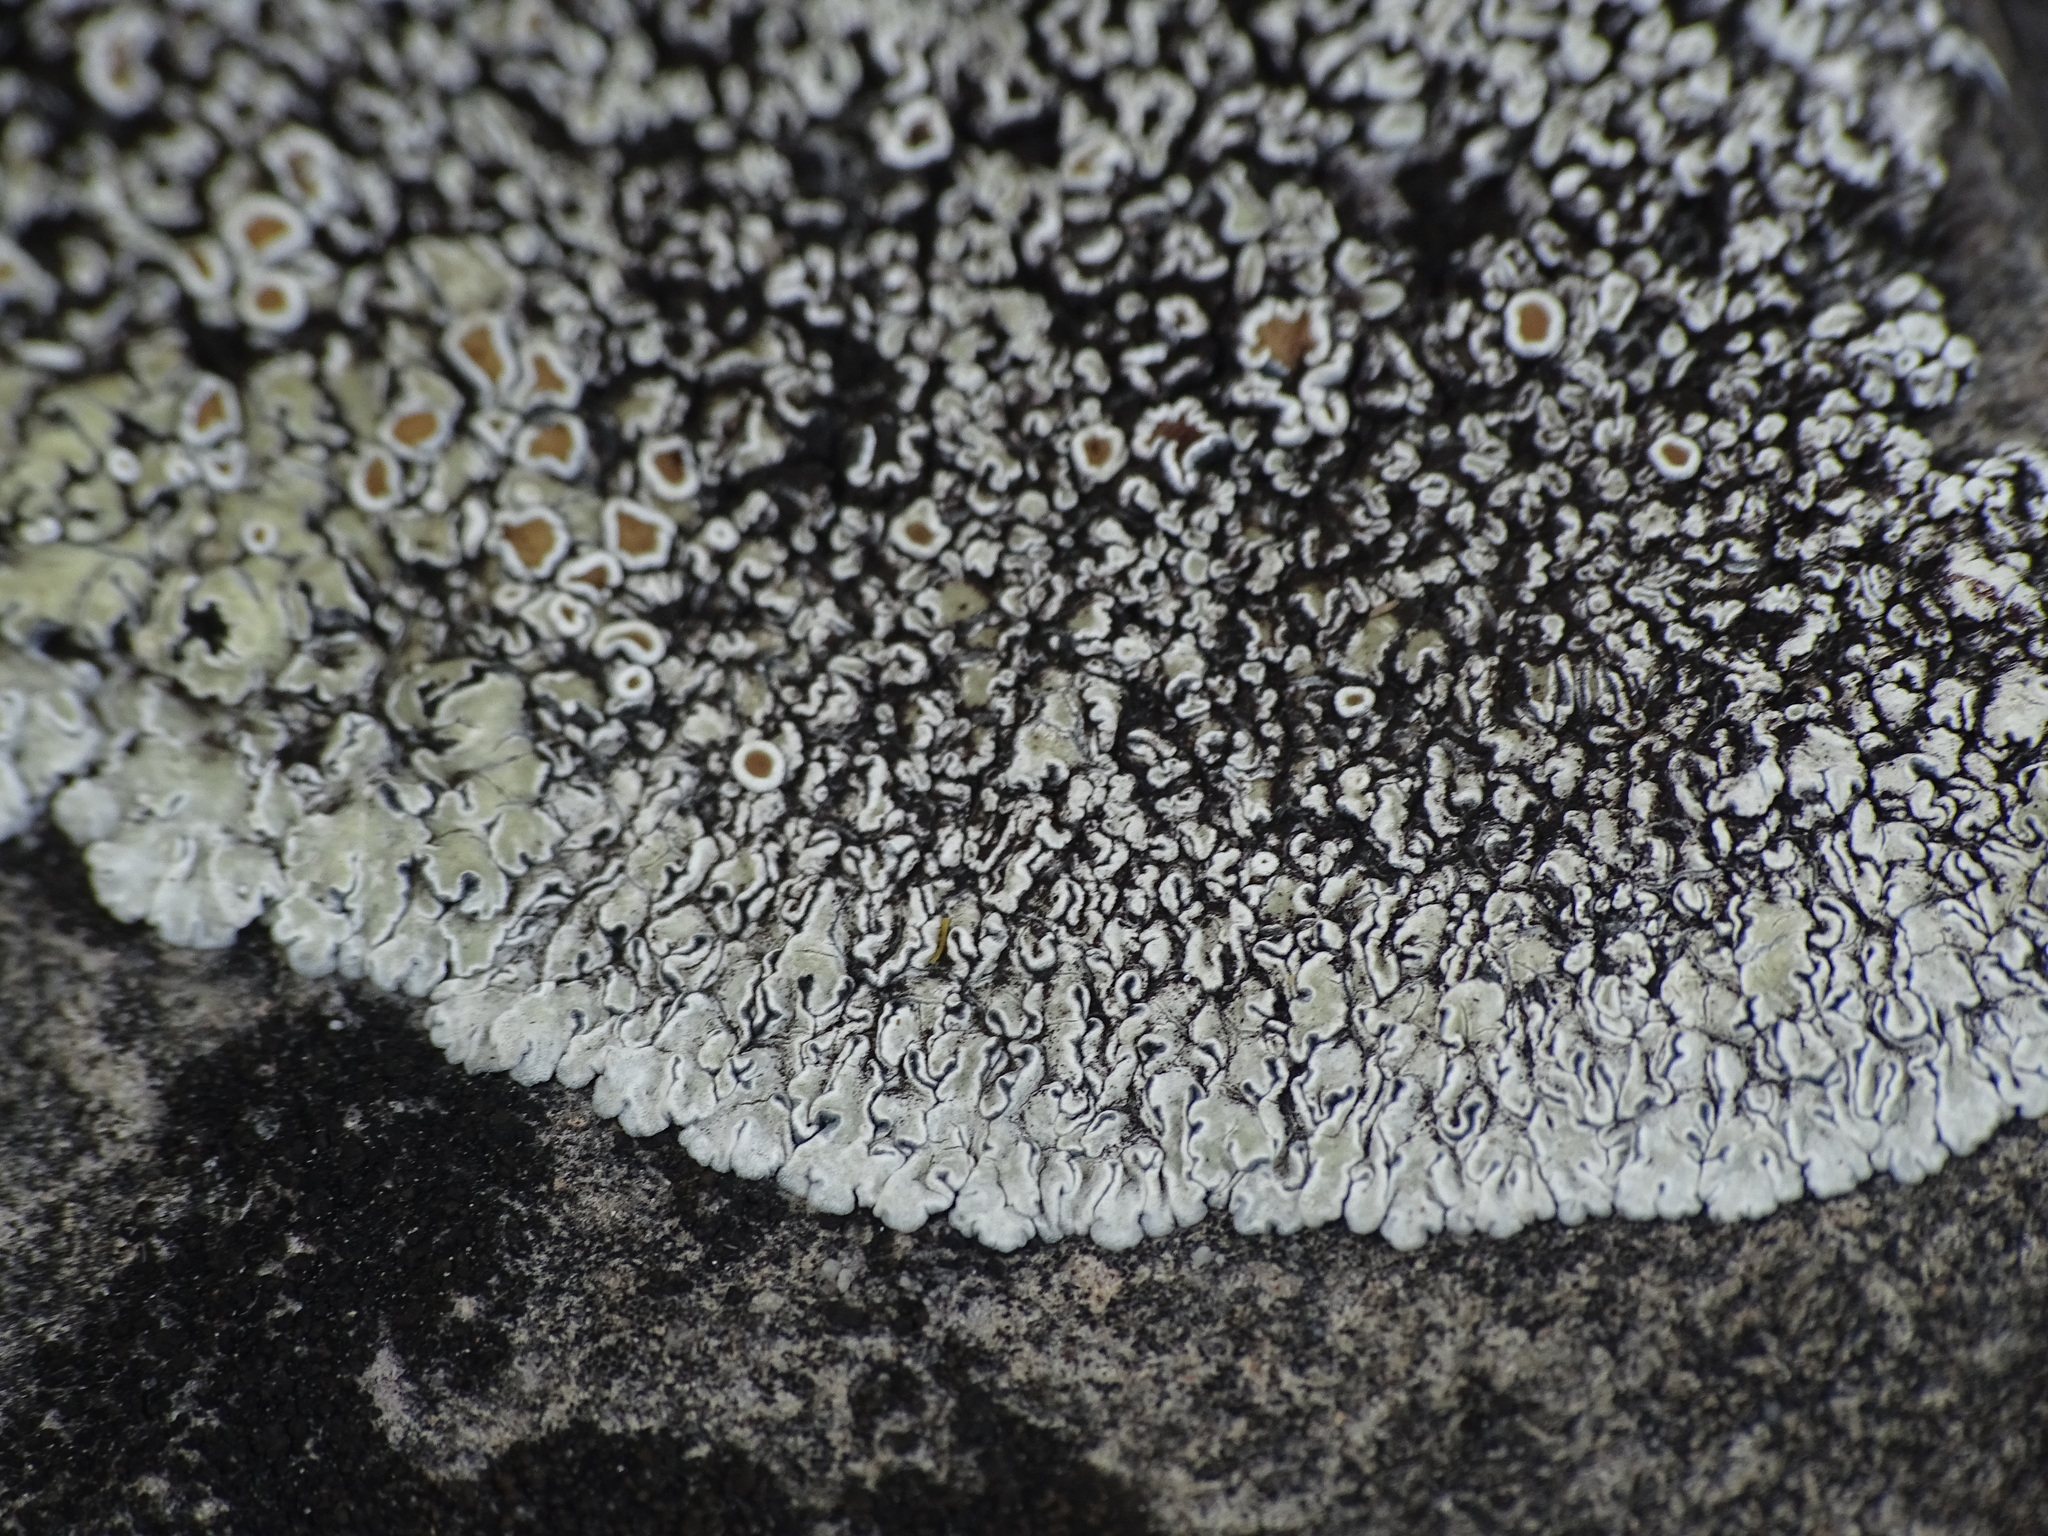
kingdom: Fungi
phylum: Ascomycota
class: Lecanoromycetes
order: Lecanorales
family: Lecanoraceae
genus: Protoparmeliopsis
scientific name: Protoparmeliopsis muralis
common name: Stonewall rim lichen
